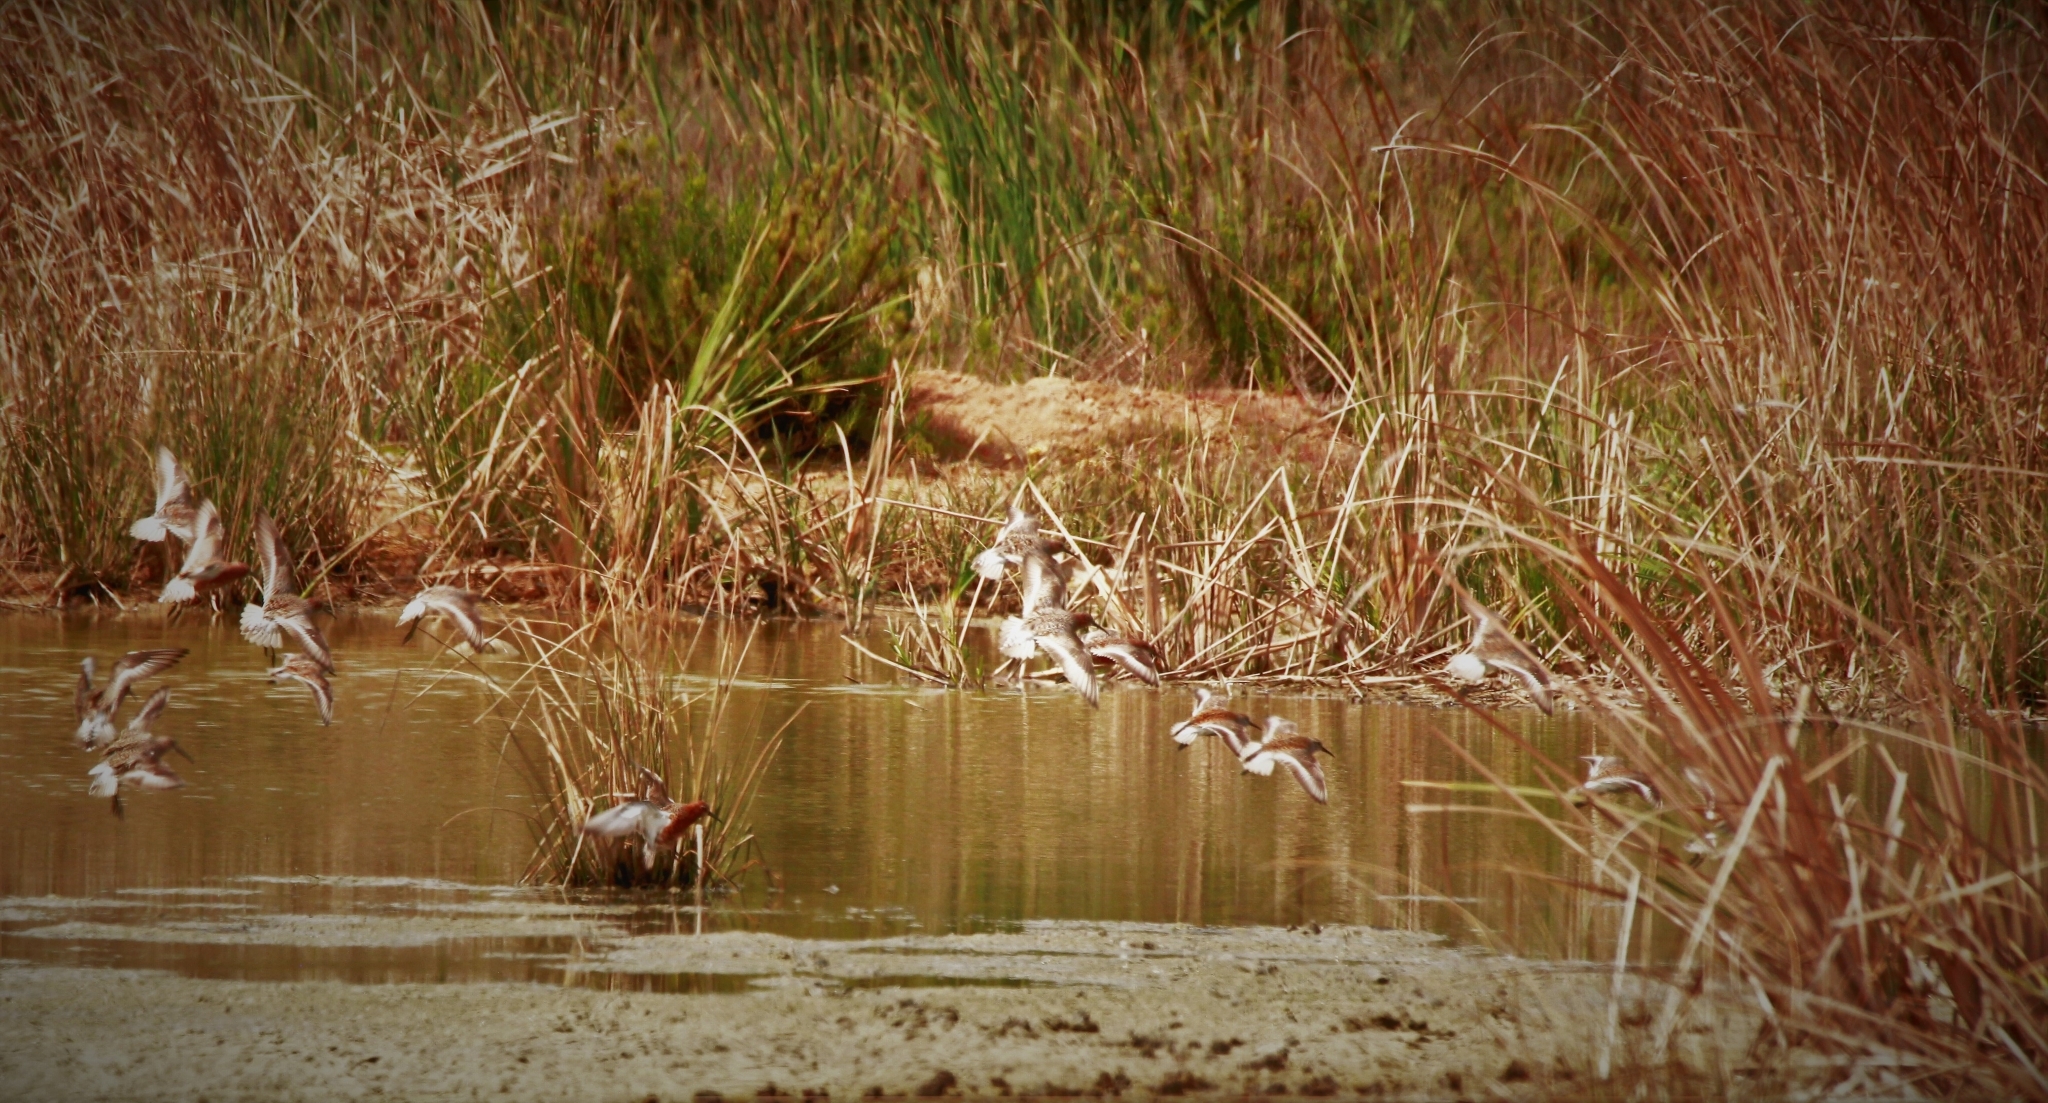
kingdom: Animalia
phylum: Chordata
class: Aves
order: Charadriiformes
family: Scolopacidae
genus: Calidris
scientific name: Calidris ferruginea
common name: Curlew sandpiper
